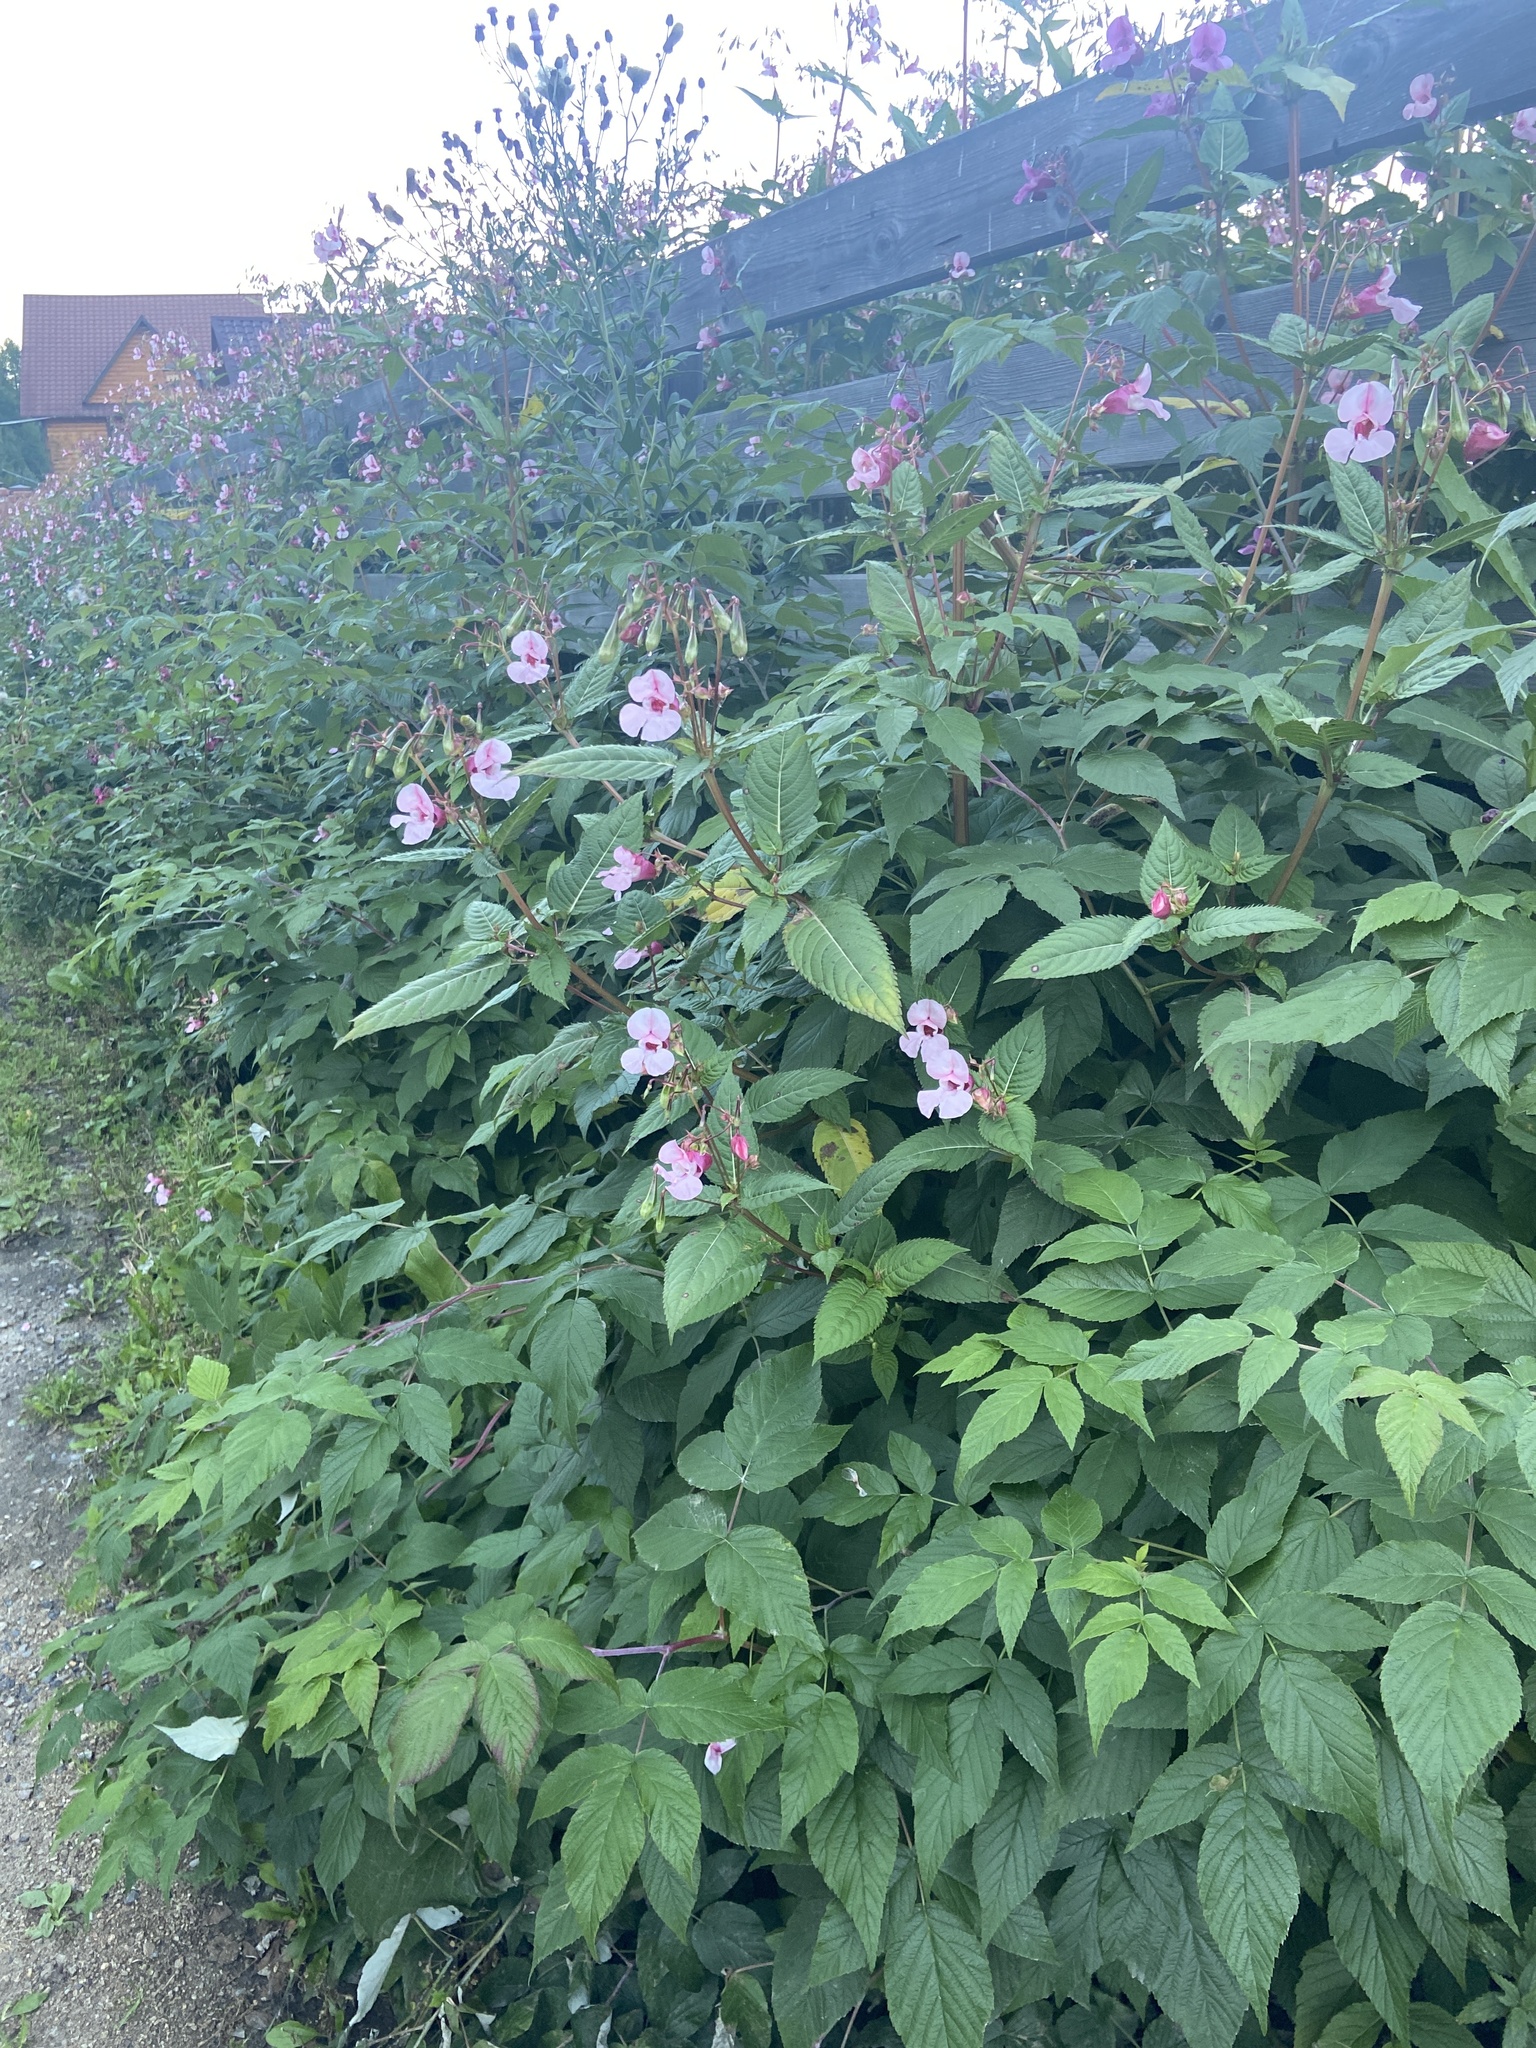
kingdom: Plantae
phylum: Tracheophyta
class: Magnoliopsida
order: Ericales
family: Balsaminaceae
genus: Impatiens
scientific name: Impatiens glandulifera
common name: Himalayan balsam
